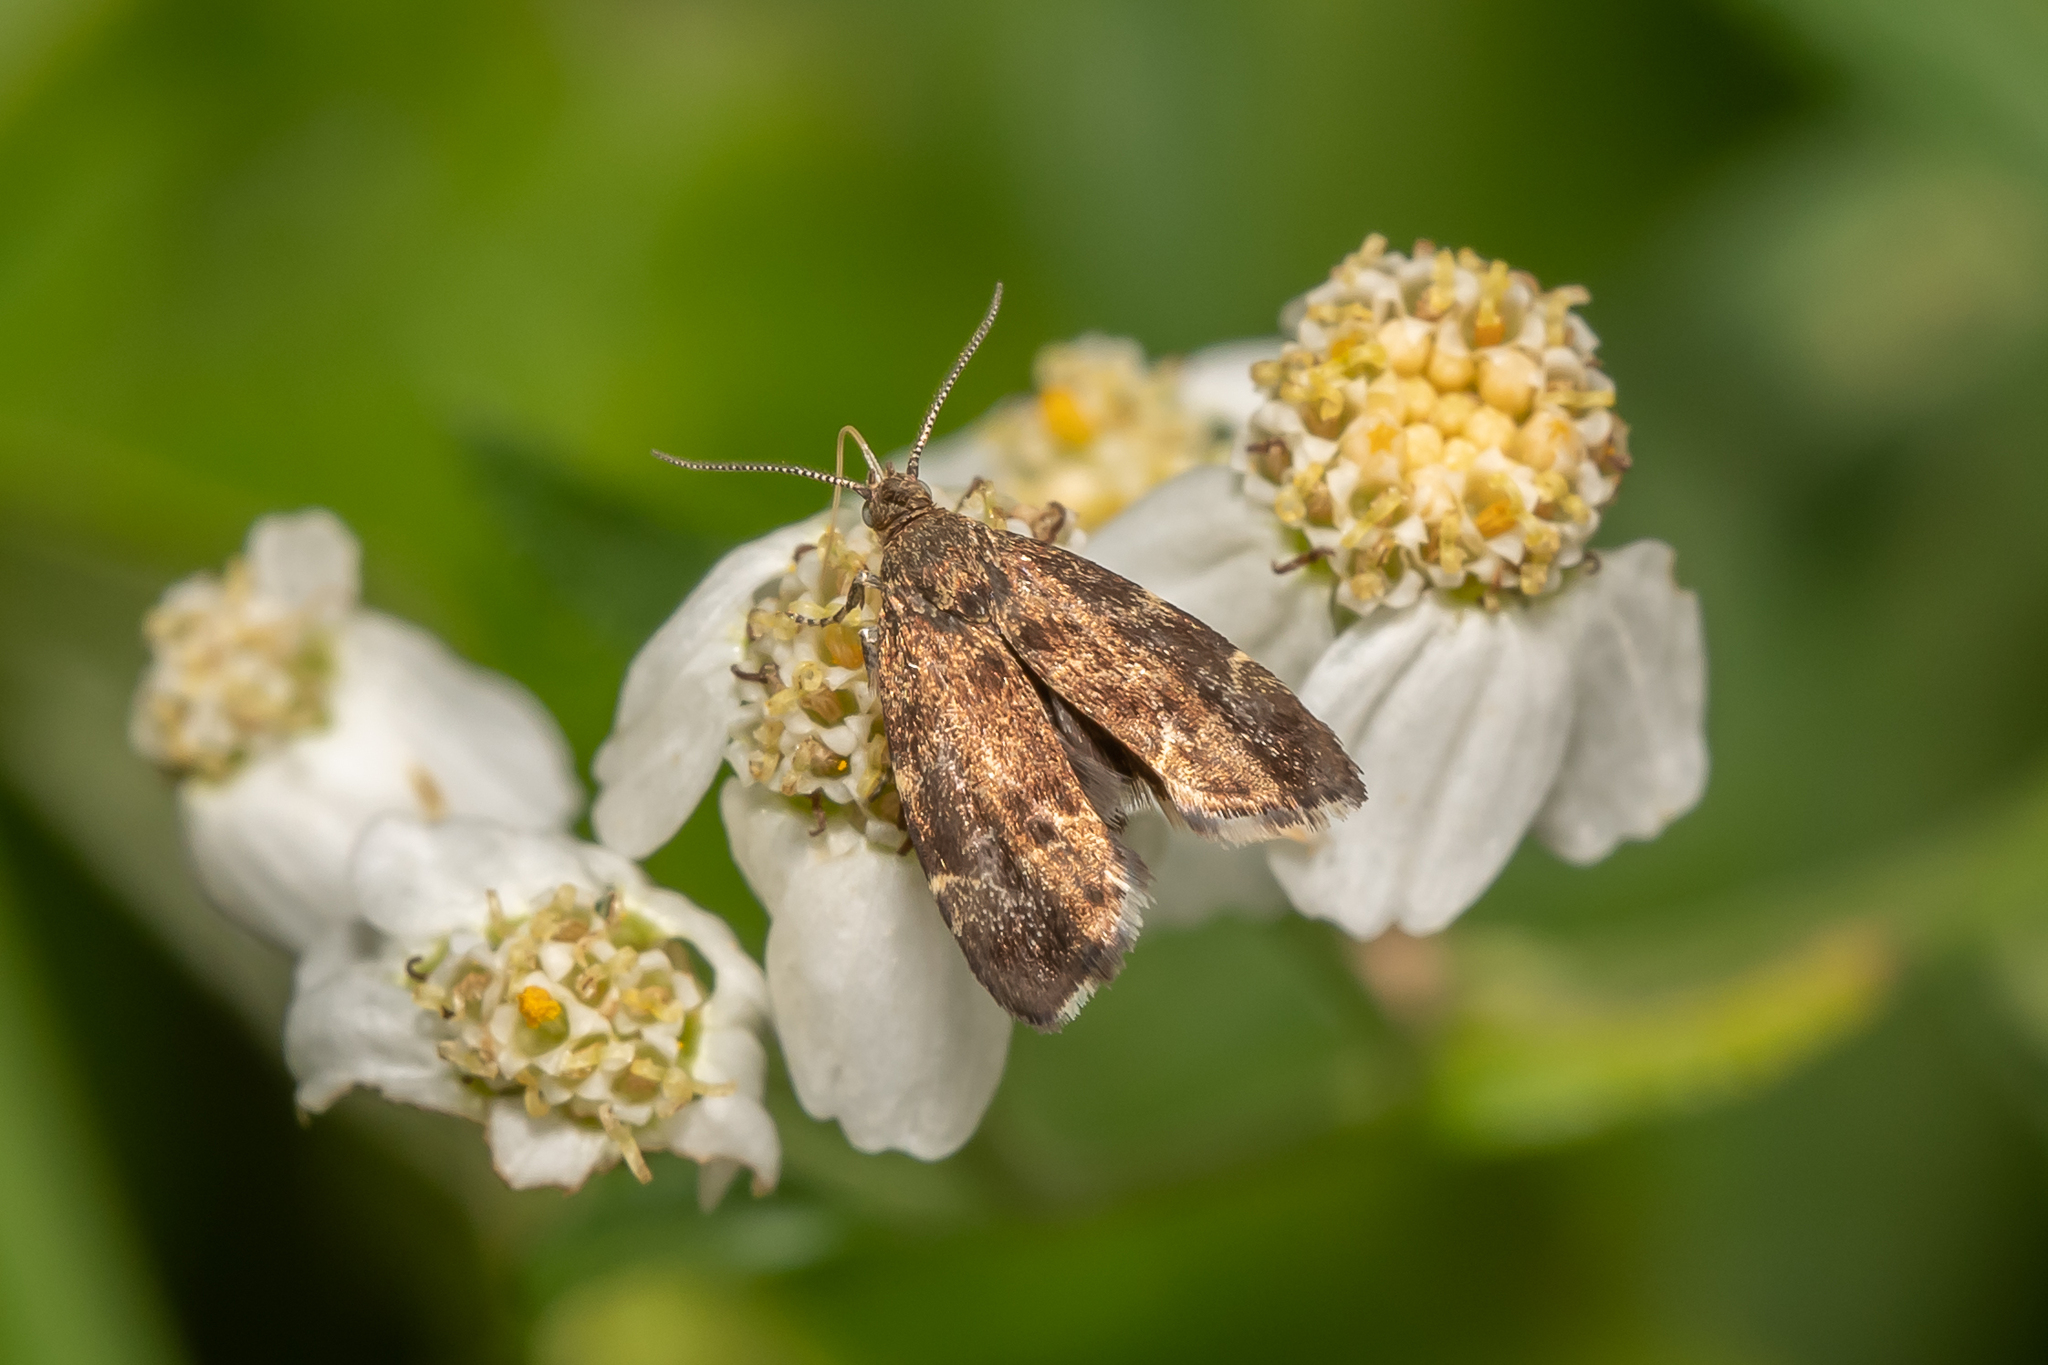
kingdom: Animalia
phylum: Arthropoda
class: Insecta
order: Lepidoptera
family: Choreutidae
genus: Anthophila
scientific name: Anthophila fabriciana
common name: Nettle-tap
